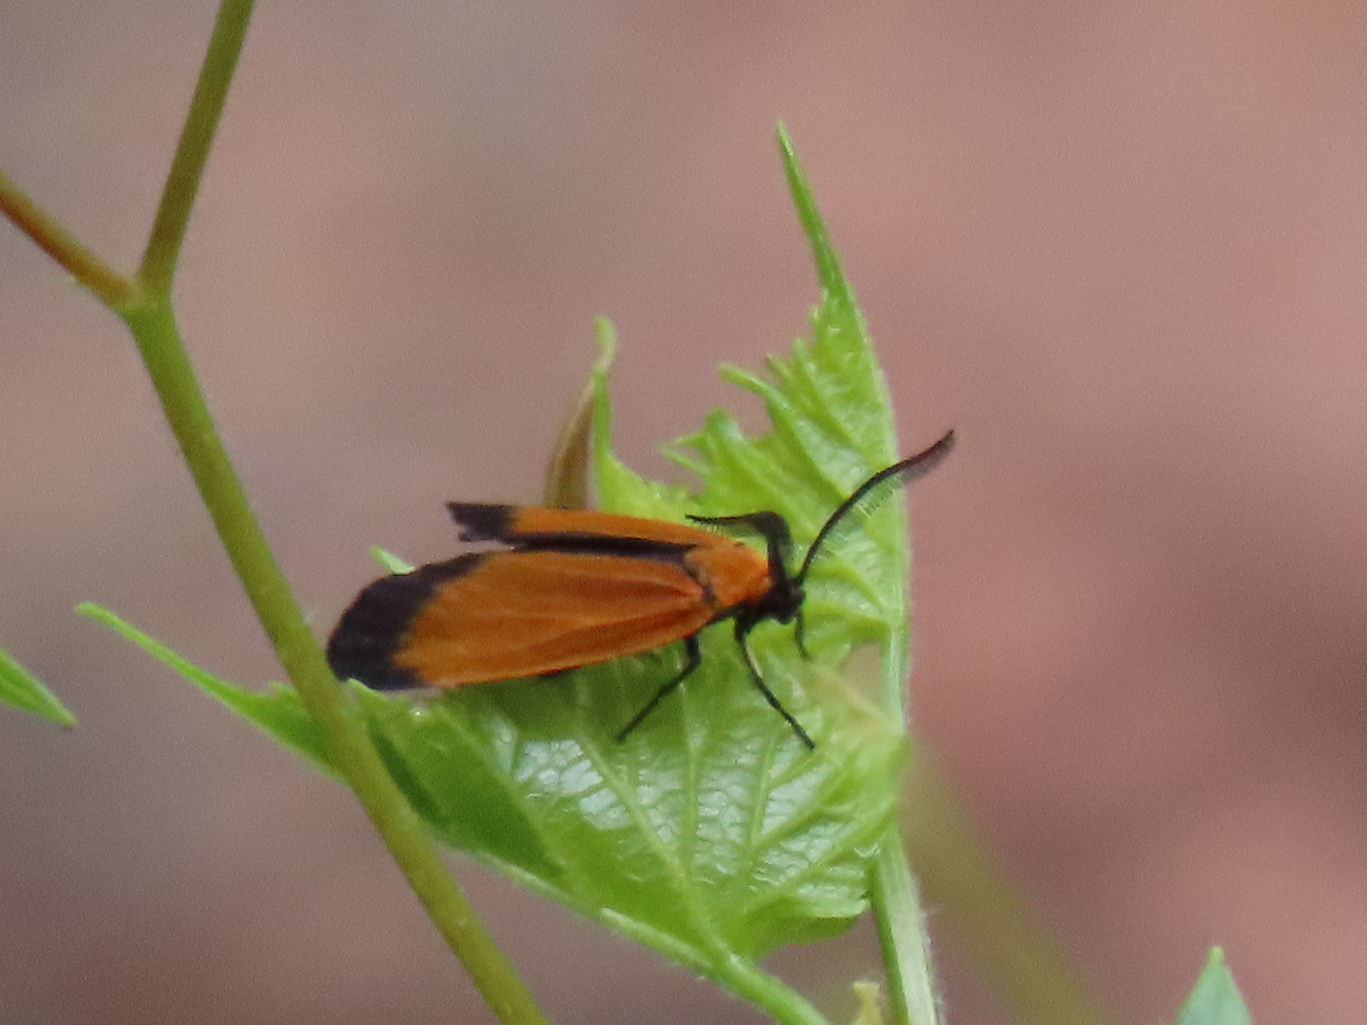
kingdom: Animalia
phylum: Arthropoda
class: Insecta
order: Lepidoptera
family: Zygaenidae
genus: Neoalbertia
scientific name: Neoalbertia constans
